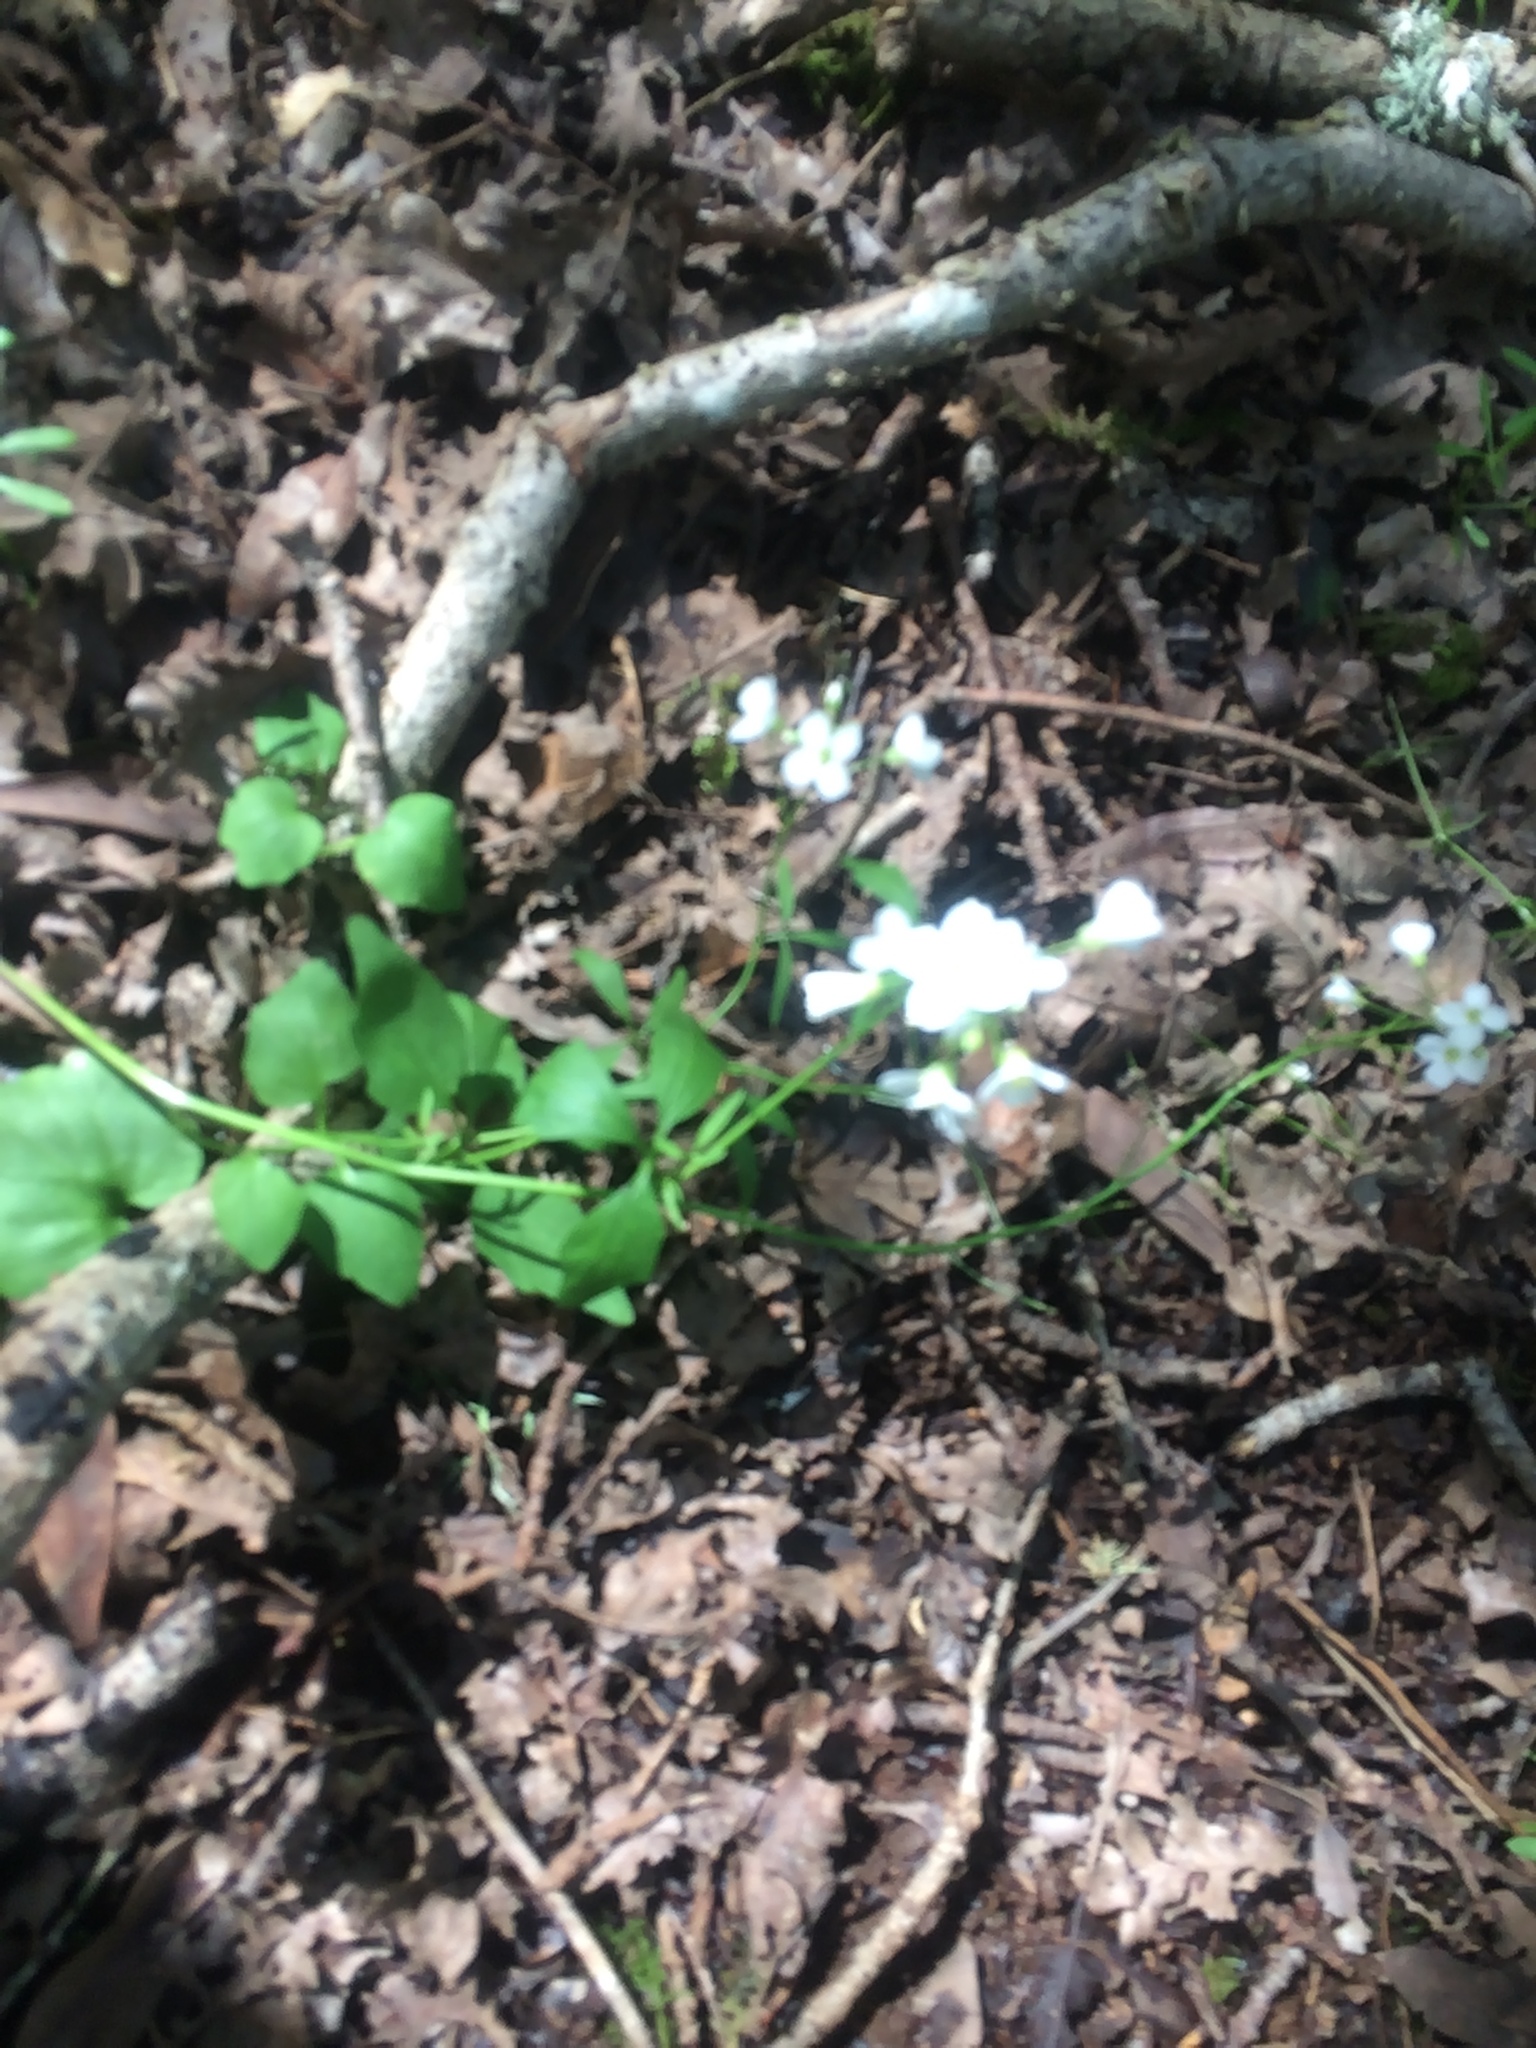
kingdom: Plantae
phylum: Tracheophyta
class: Magnoliopsida
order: Brassicales
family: Brassicaceae
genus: Cardamine
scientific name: Cardamine californica
